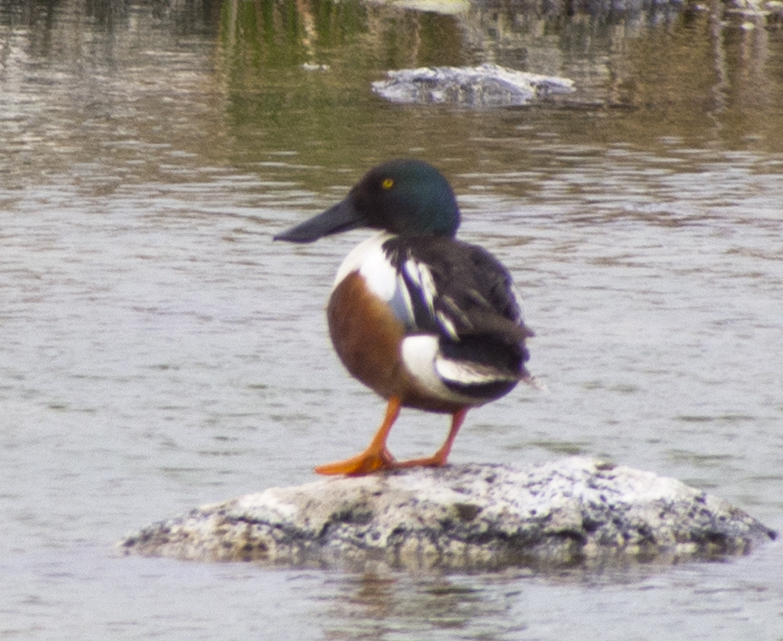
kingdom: Animalia
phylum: Chordata
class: Aves
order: Anseriformes
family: Anatidae
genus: Spatula
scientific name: Spatula clypeata
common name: Northern shoveler
